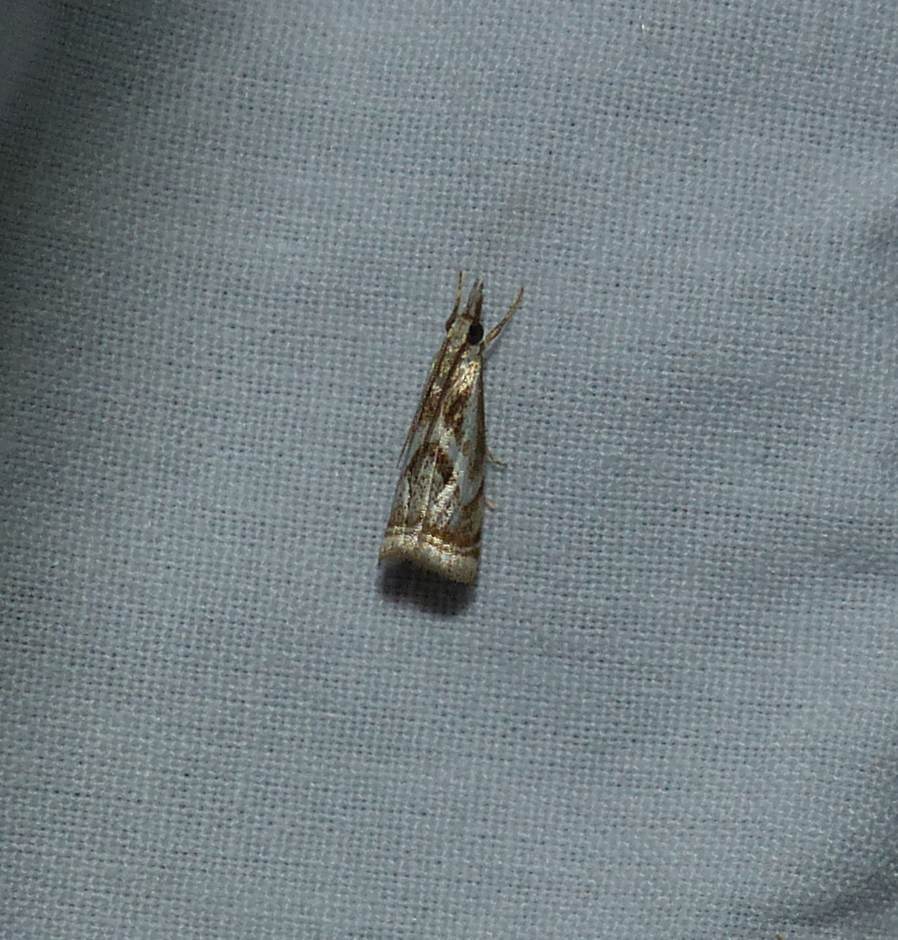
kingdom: Animalia
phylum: Arthropoda
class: Insecta
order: Lepidoptera
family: Crambidae
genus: Microcrambus
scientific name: Microcrambus elegans
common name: Elegant grass-veneer
